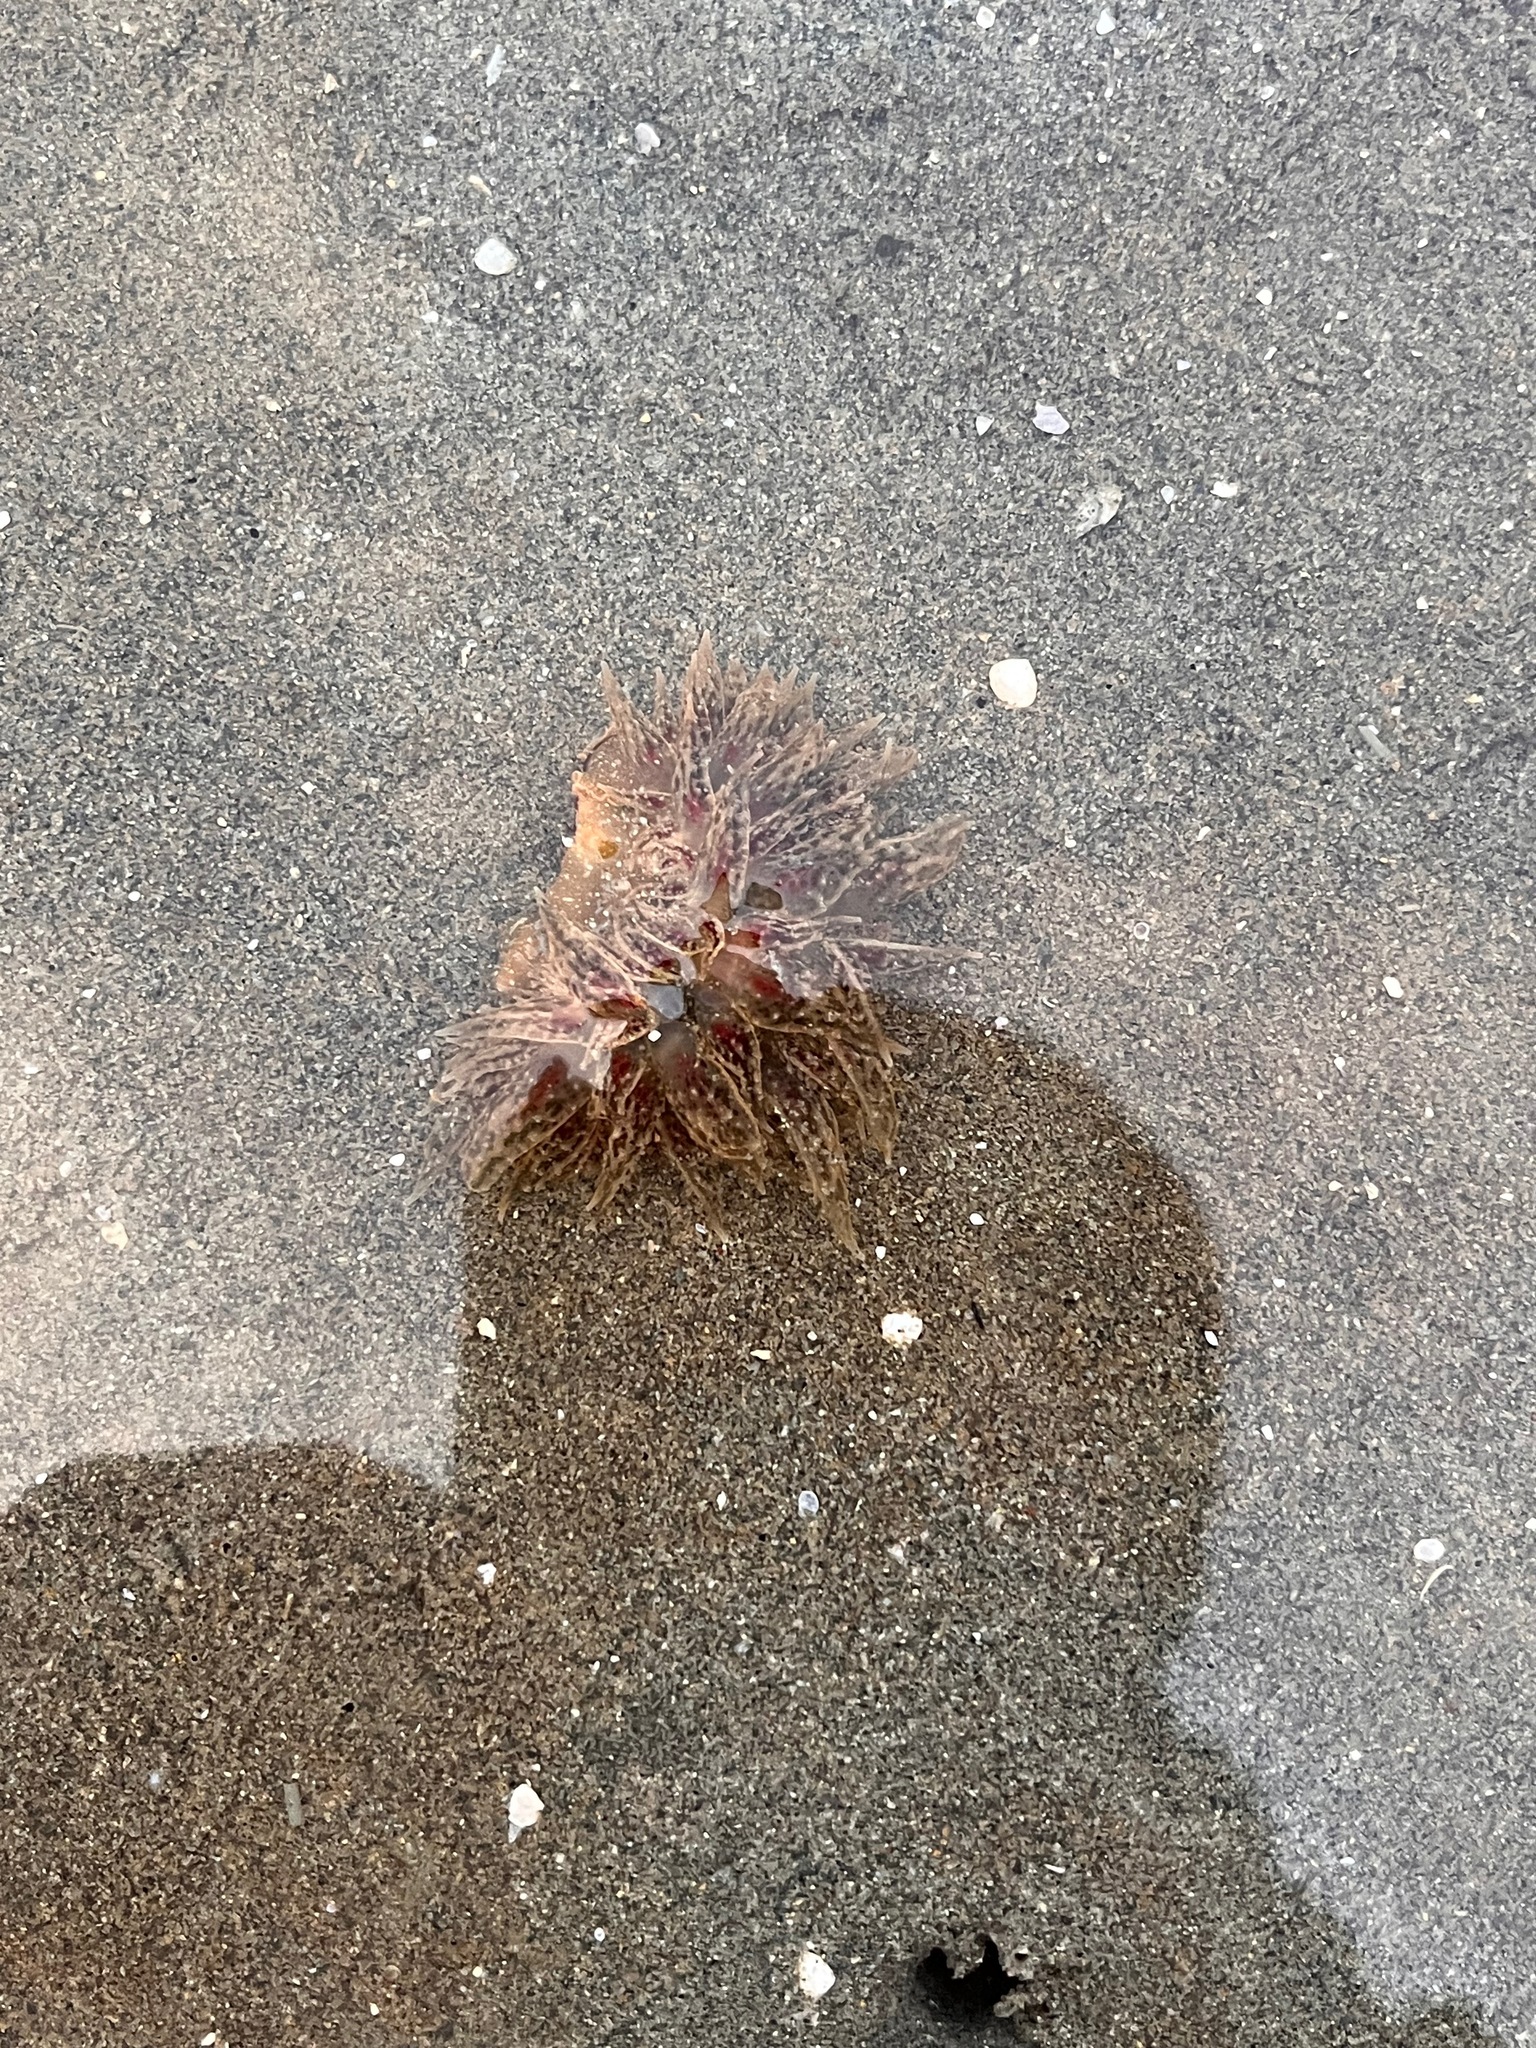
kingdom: Animalia
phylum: Mollusca
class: Gastropoda
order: Nudibranchia
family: Dironidae
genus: Dirona
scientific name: Dirona picta
